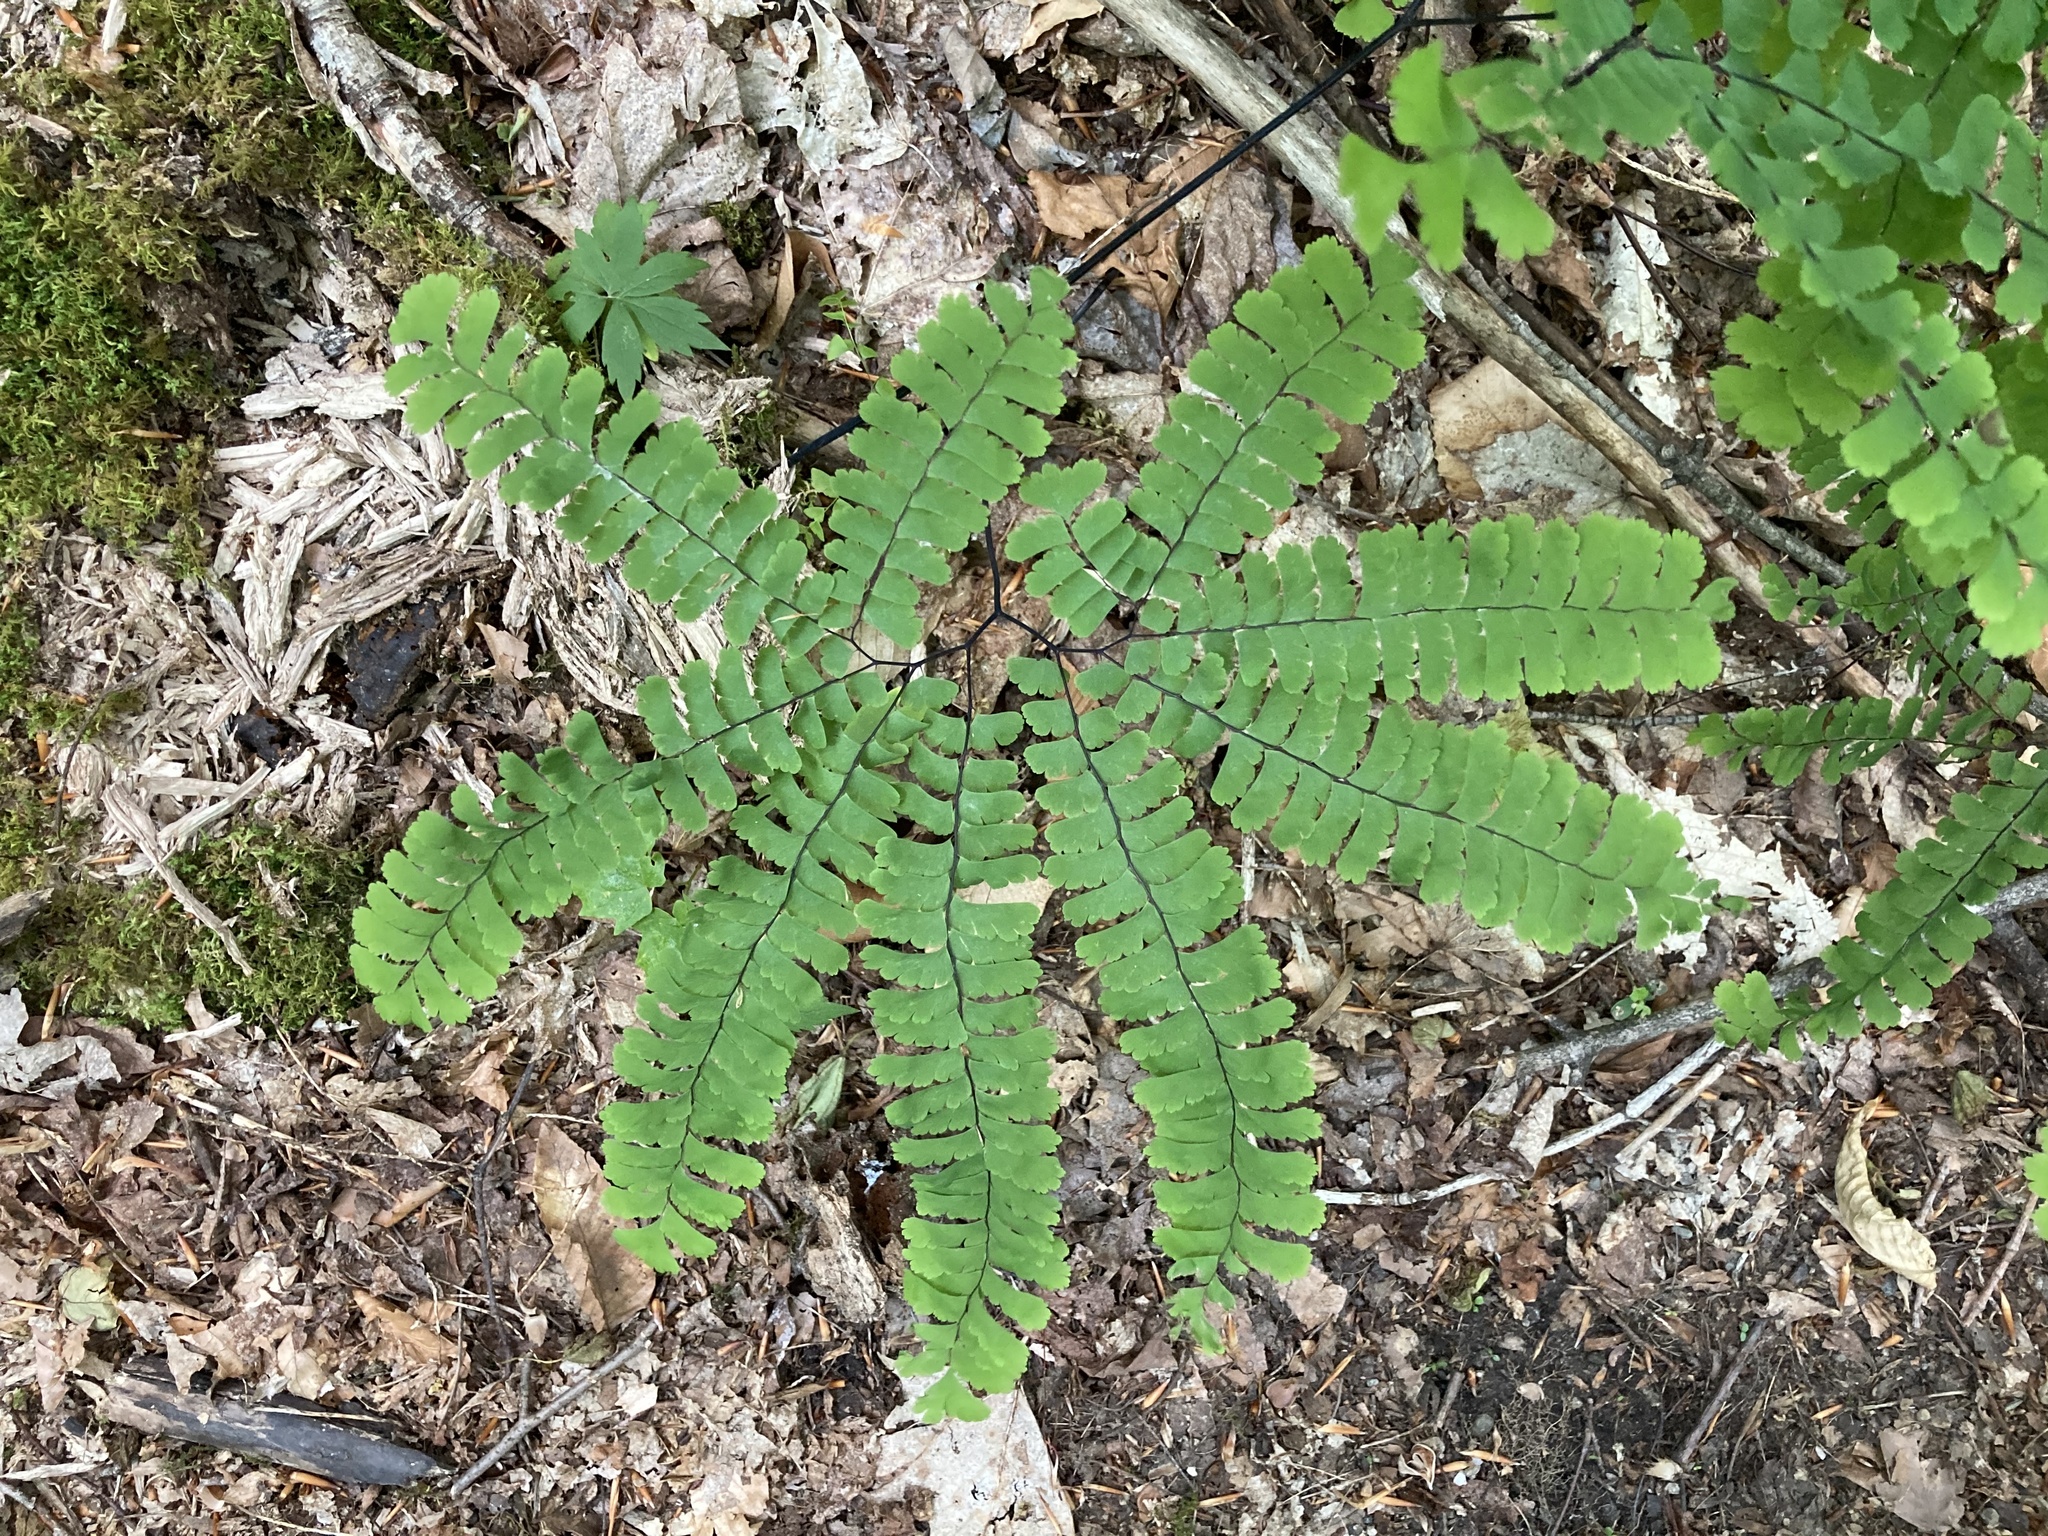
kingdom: Plantae
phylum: Tracheophyta
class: Polypodiopsida
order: Polypodiales
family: Pteridaceae
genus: Adiantum
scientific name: Adiantum pedatum
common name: Five-finger fern
